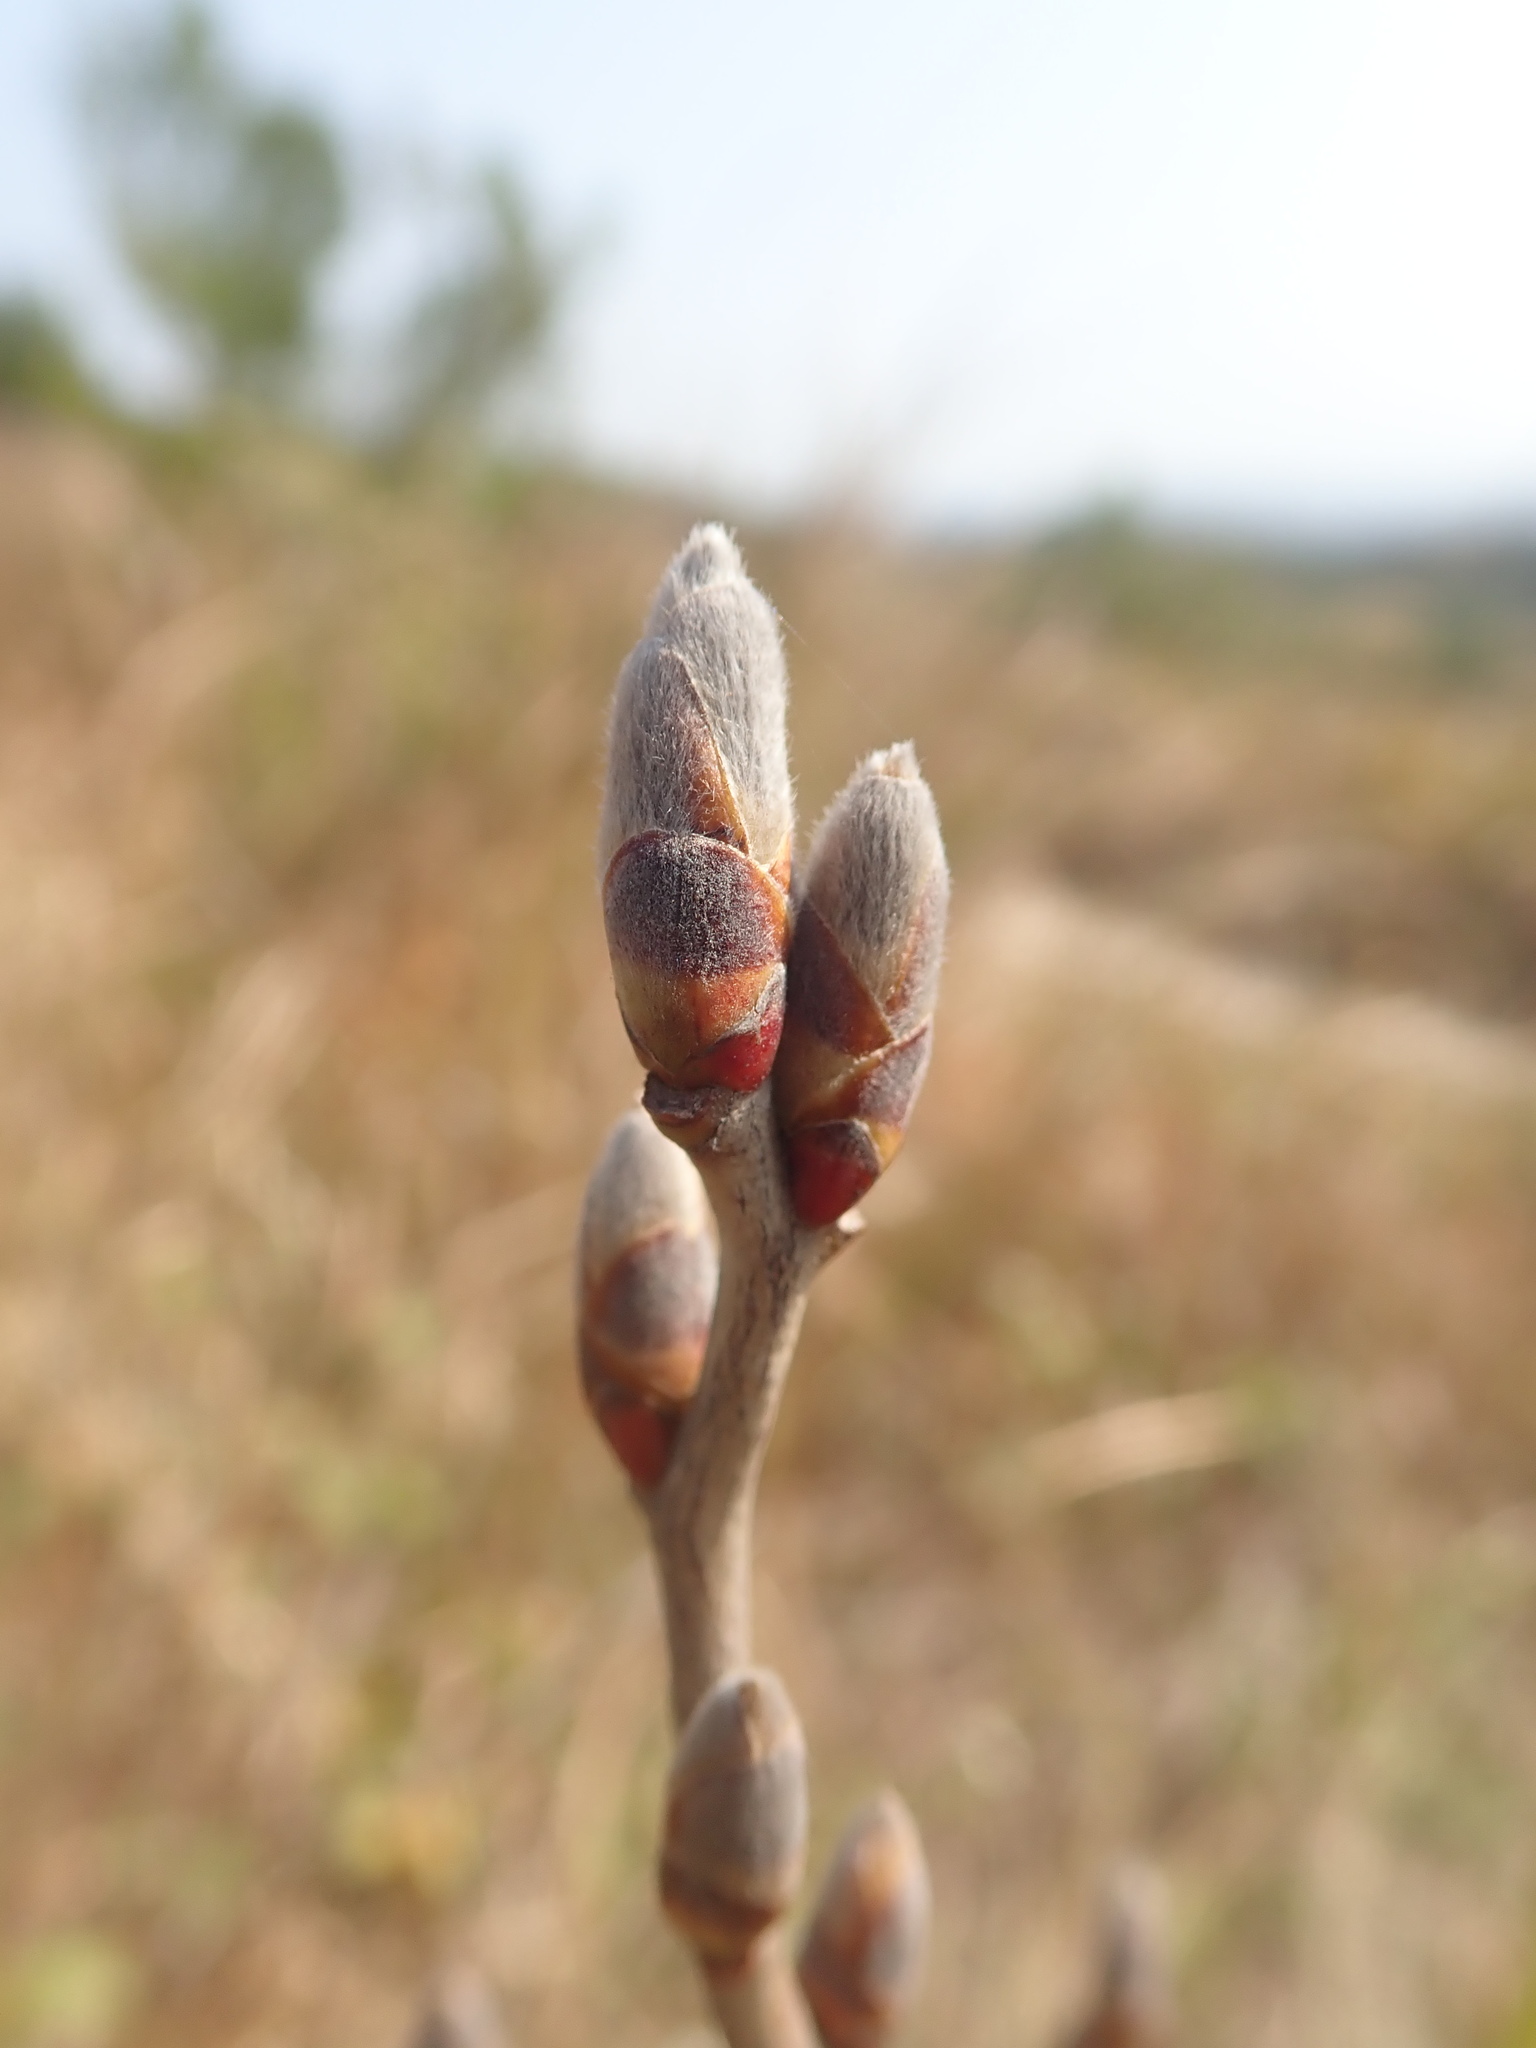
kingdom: Plantae
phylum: Tracheophyta
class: Magnoliopsida
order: Laurales
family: Lauraceae
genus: Lindera
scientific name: Lindera glauca
